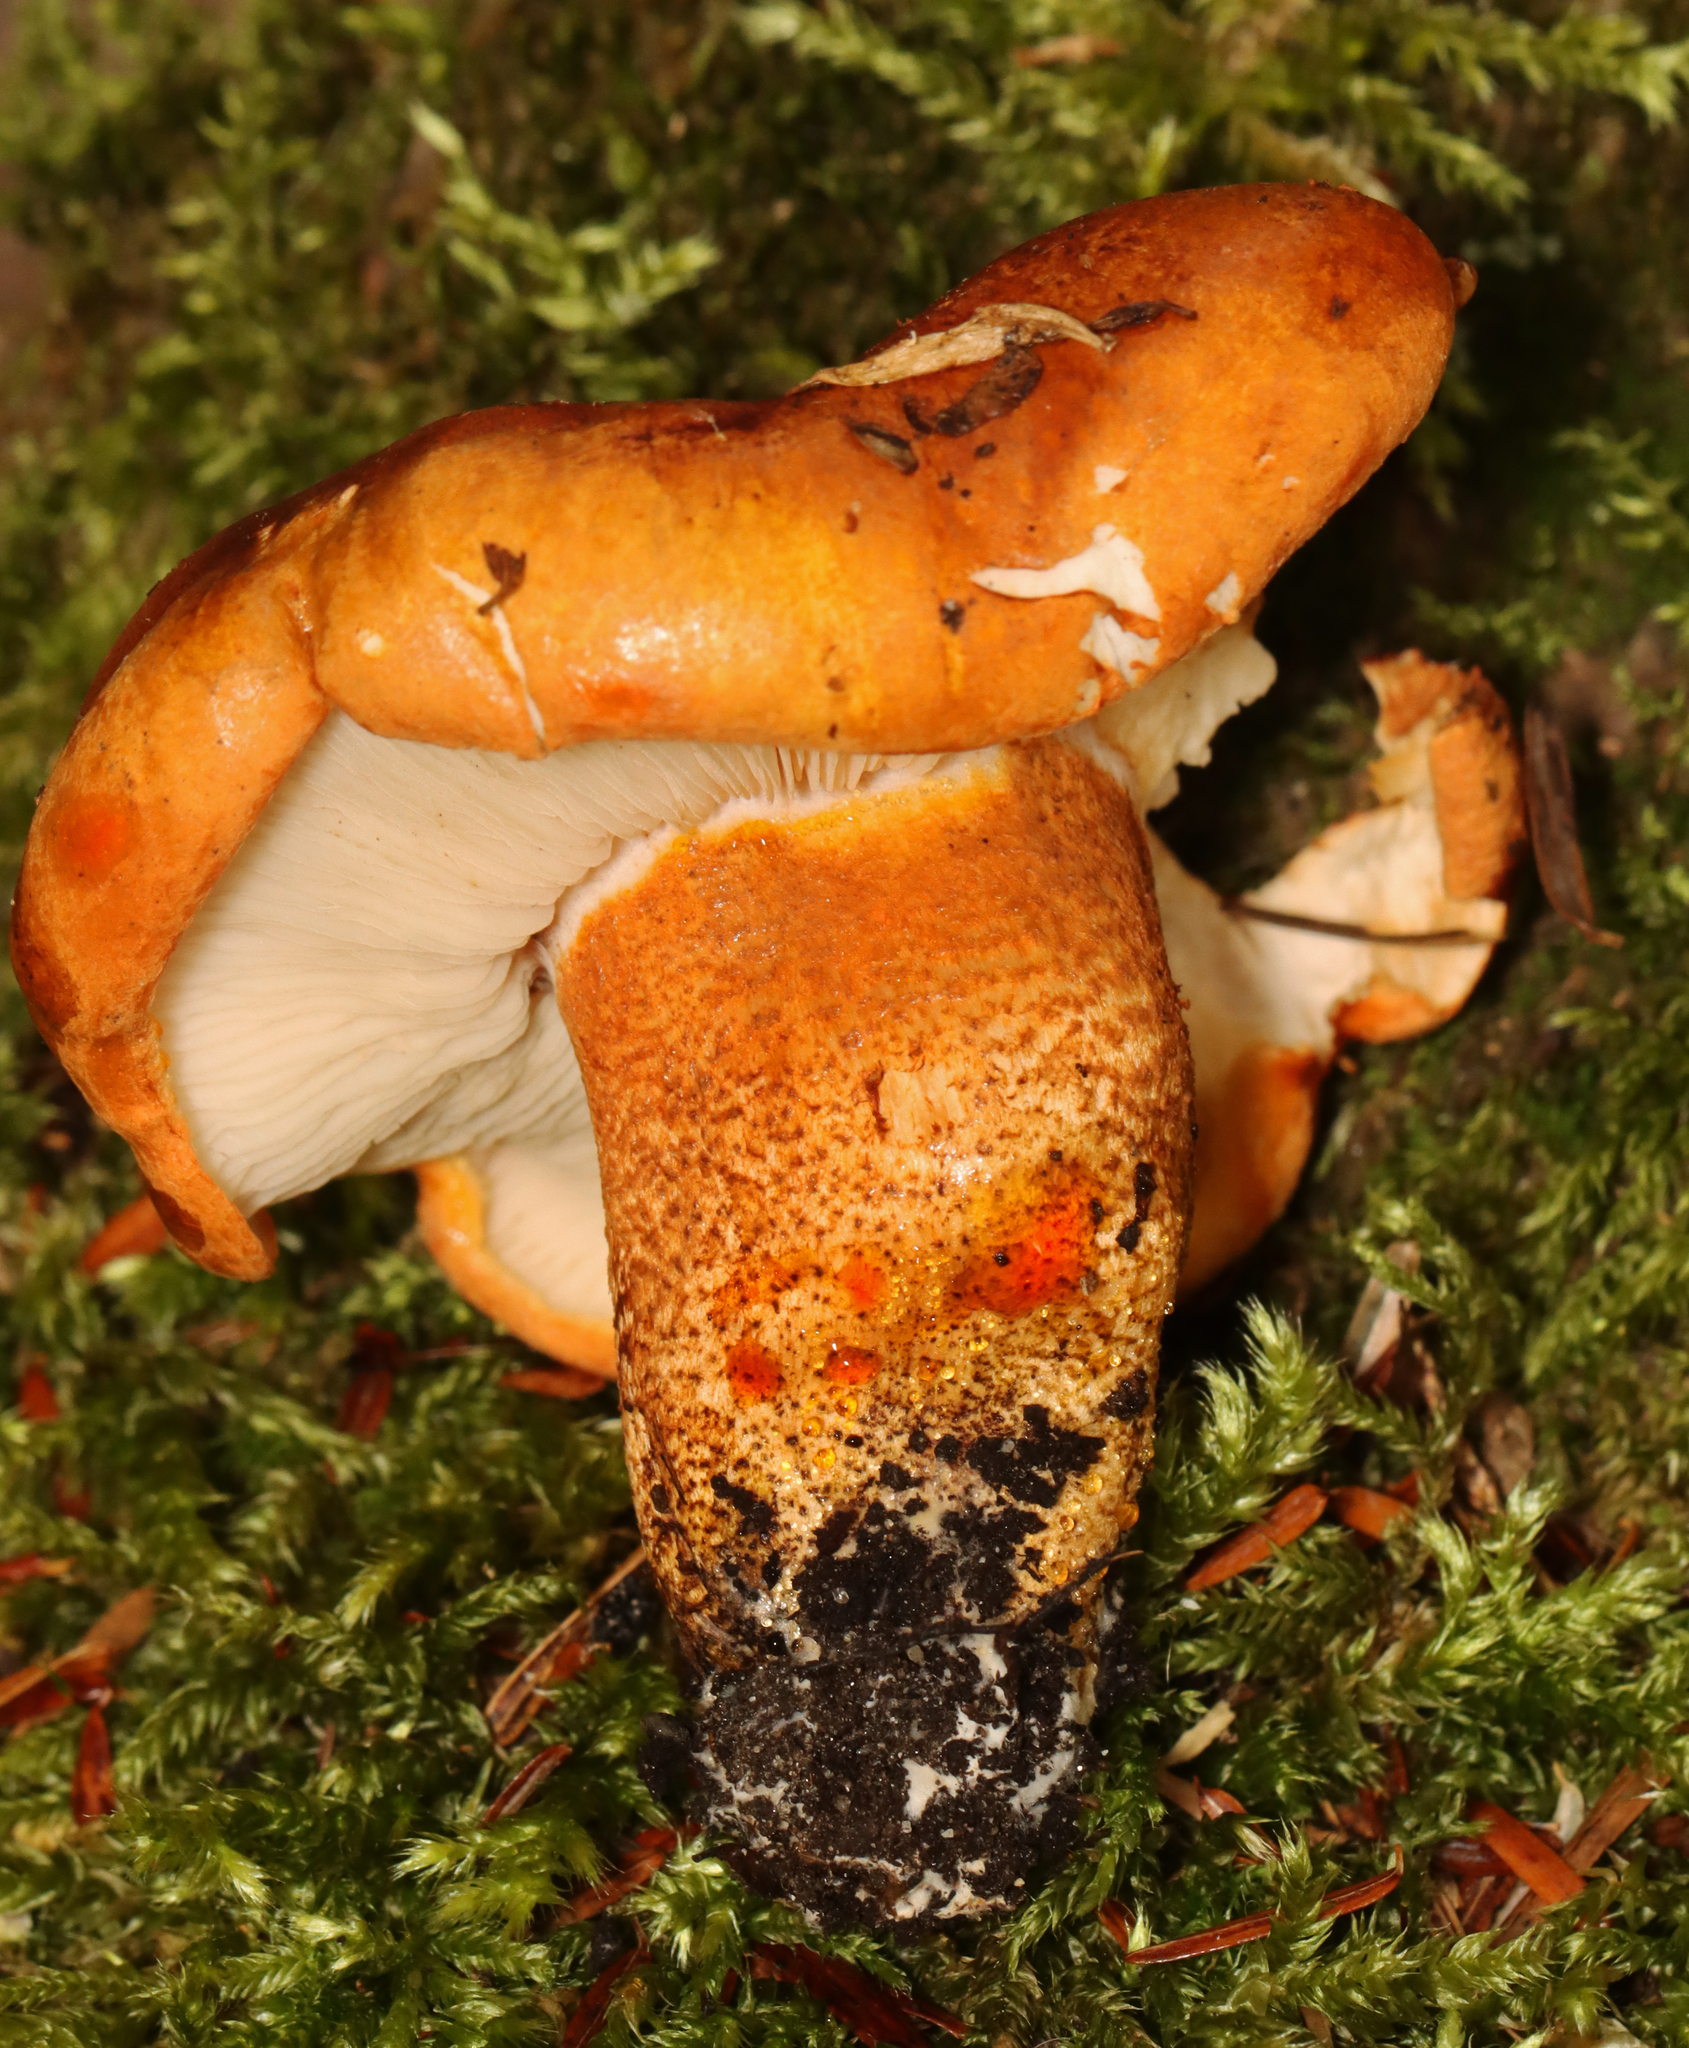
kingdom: Fungi
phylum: Basidiomycota
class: Agaricomycetes
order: Agaricales
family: Tricholomataceae
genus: Tricholoma
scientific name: Tricholoma aurantium
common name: Orange knight
